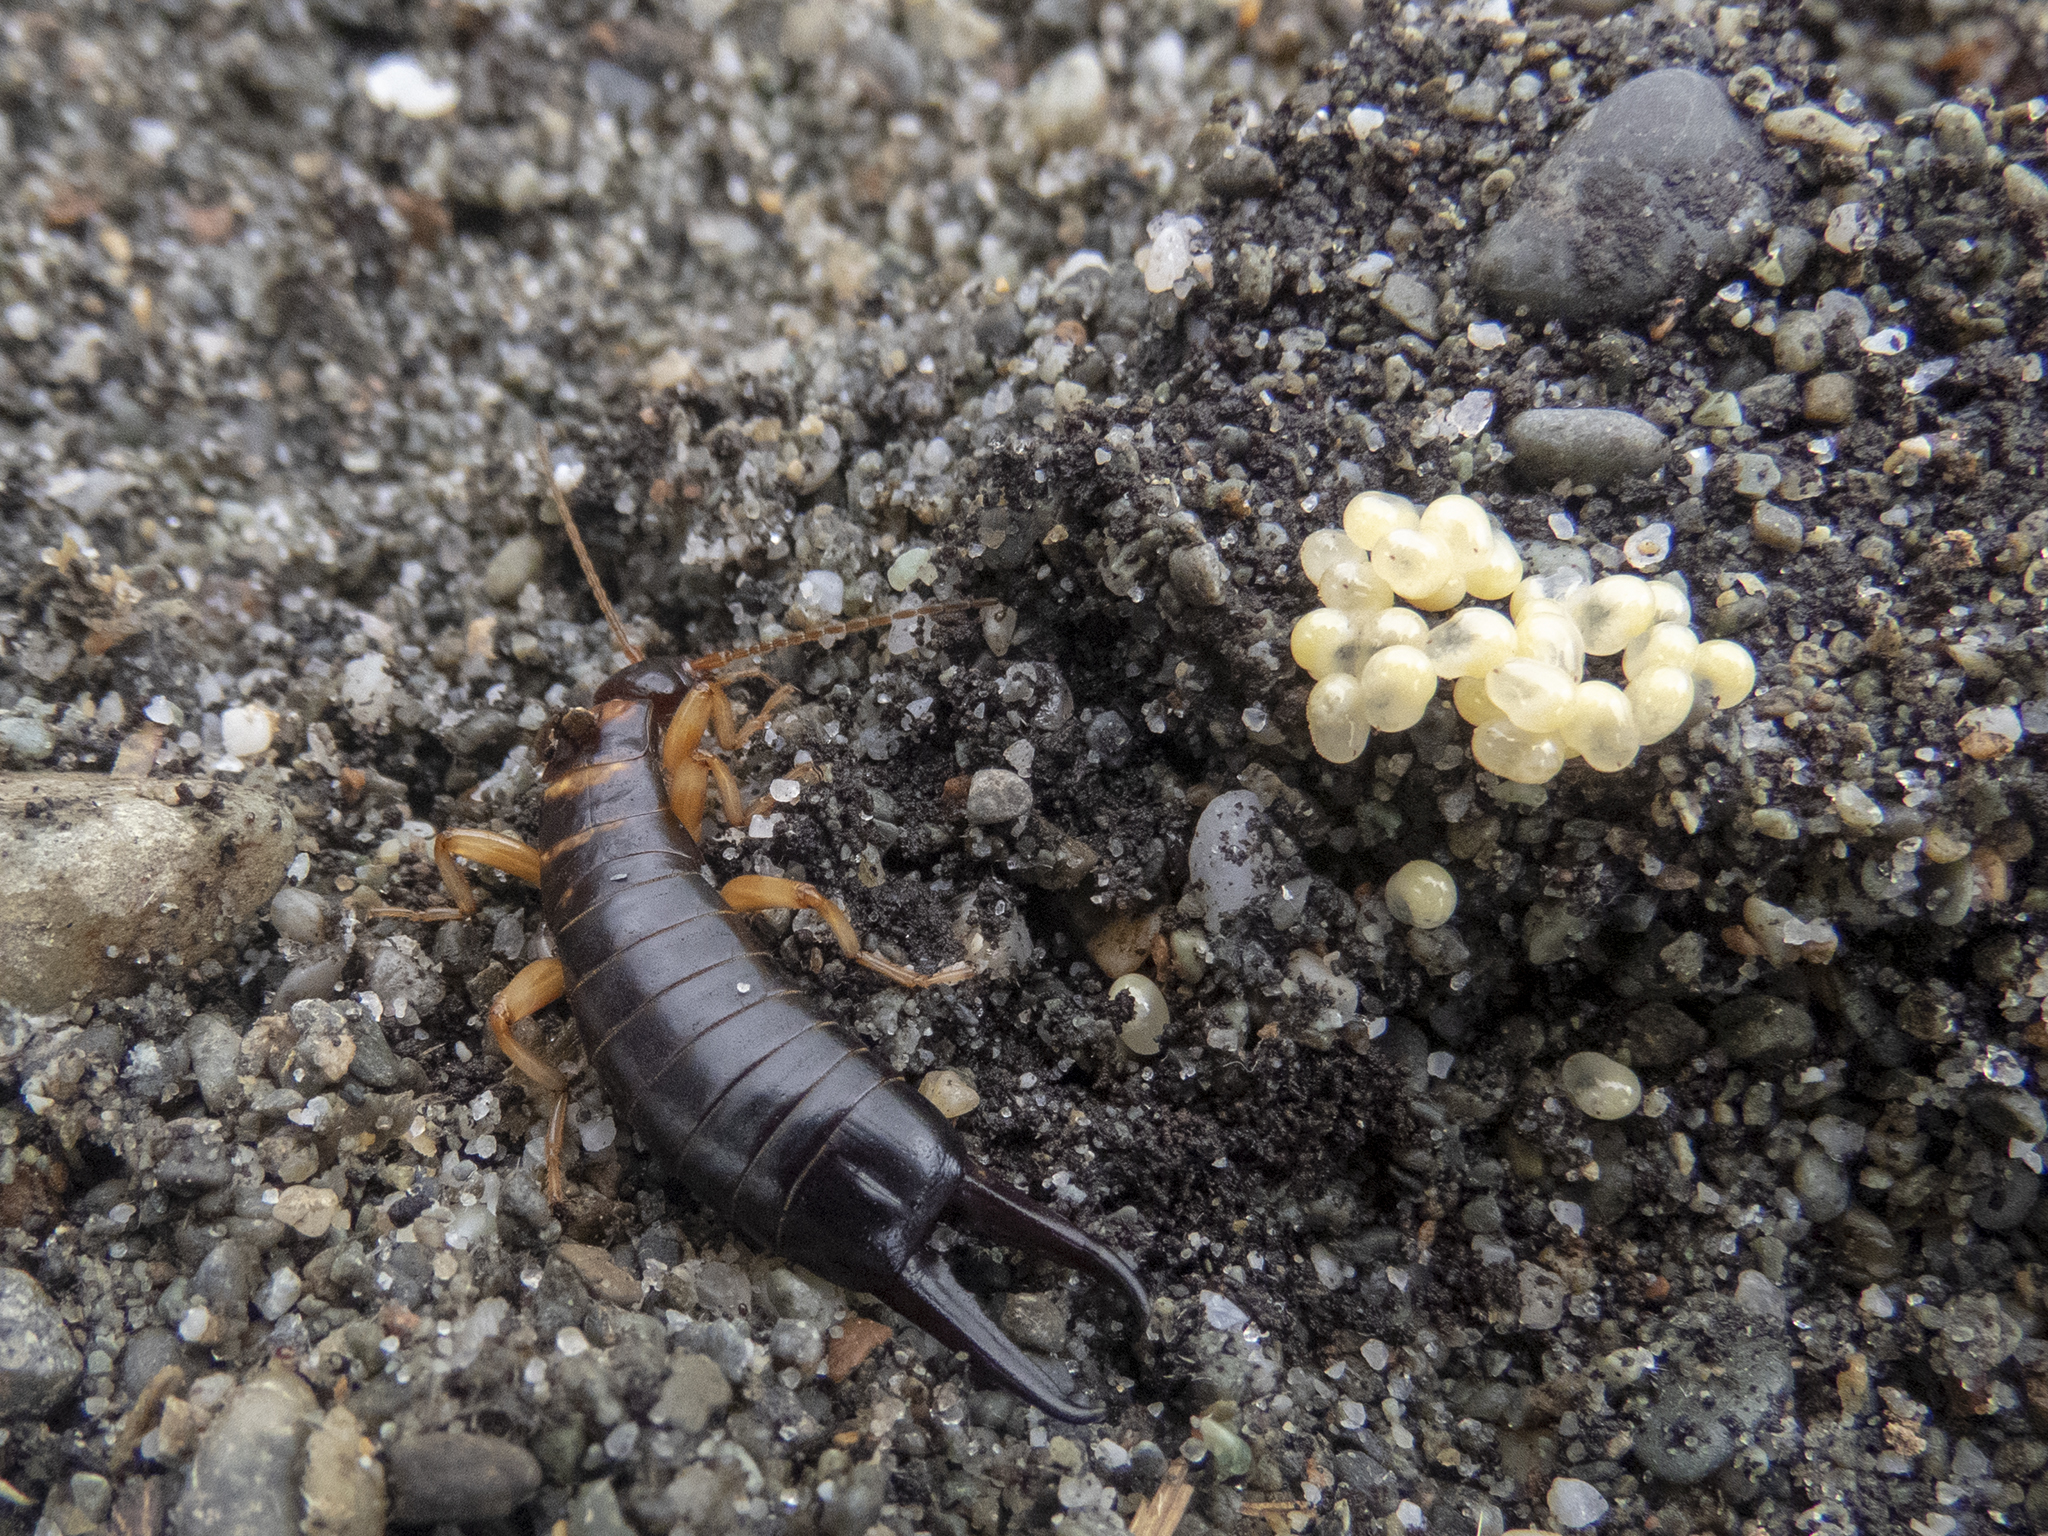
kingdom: Animalia
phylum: Arthropoda
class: Insecta
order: Dermaptera
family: Anisolabididae
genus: Anisolabis
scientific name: Anisolabis littorea
